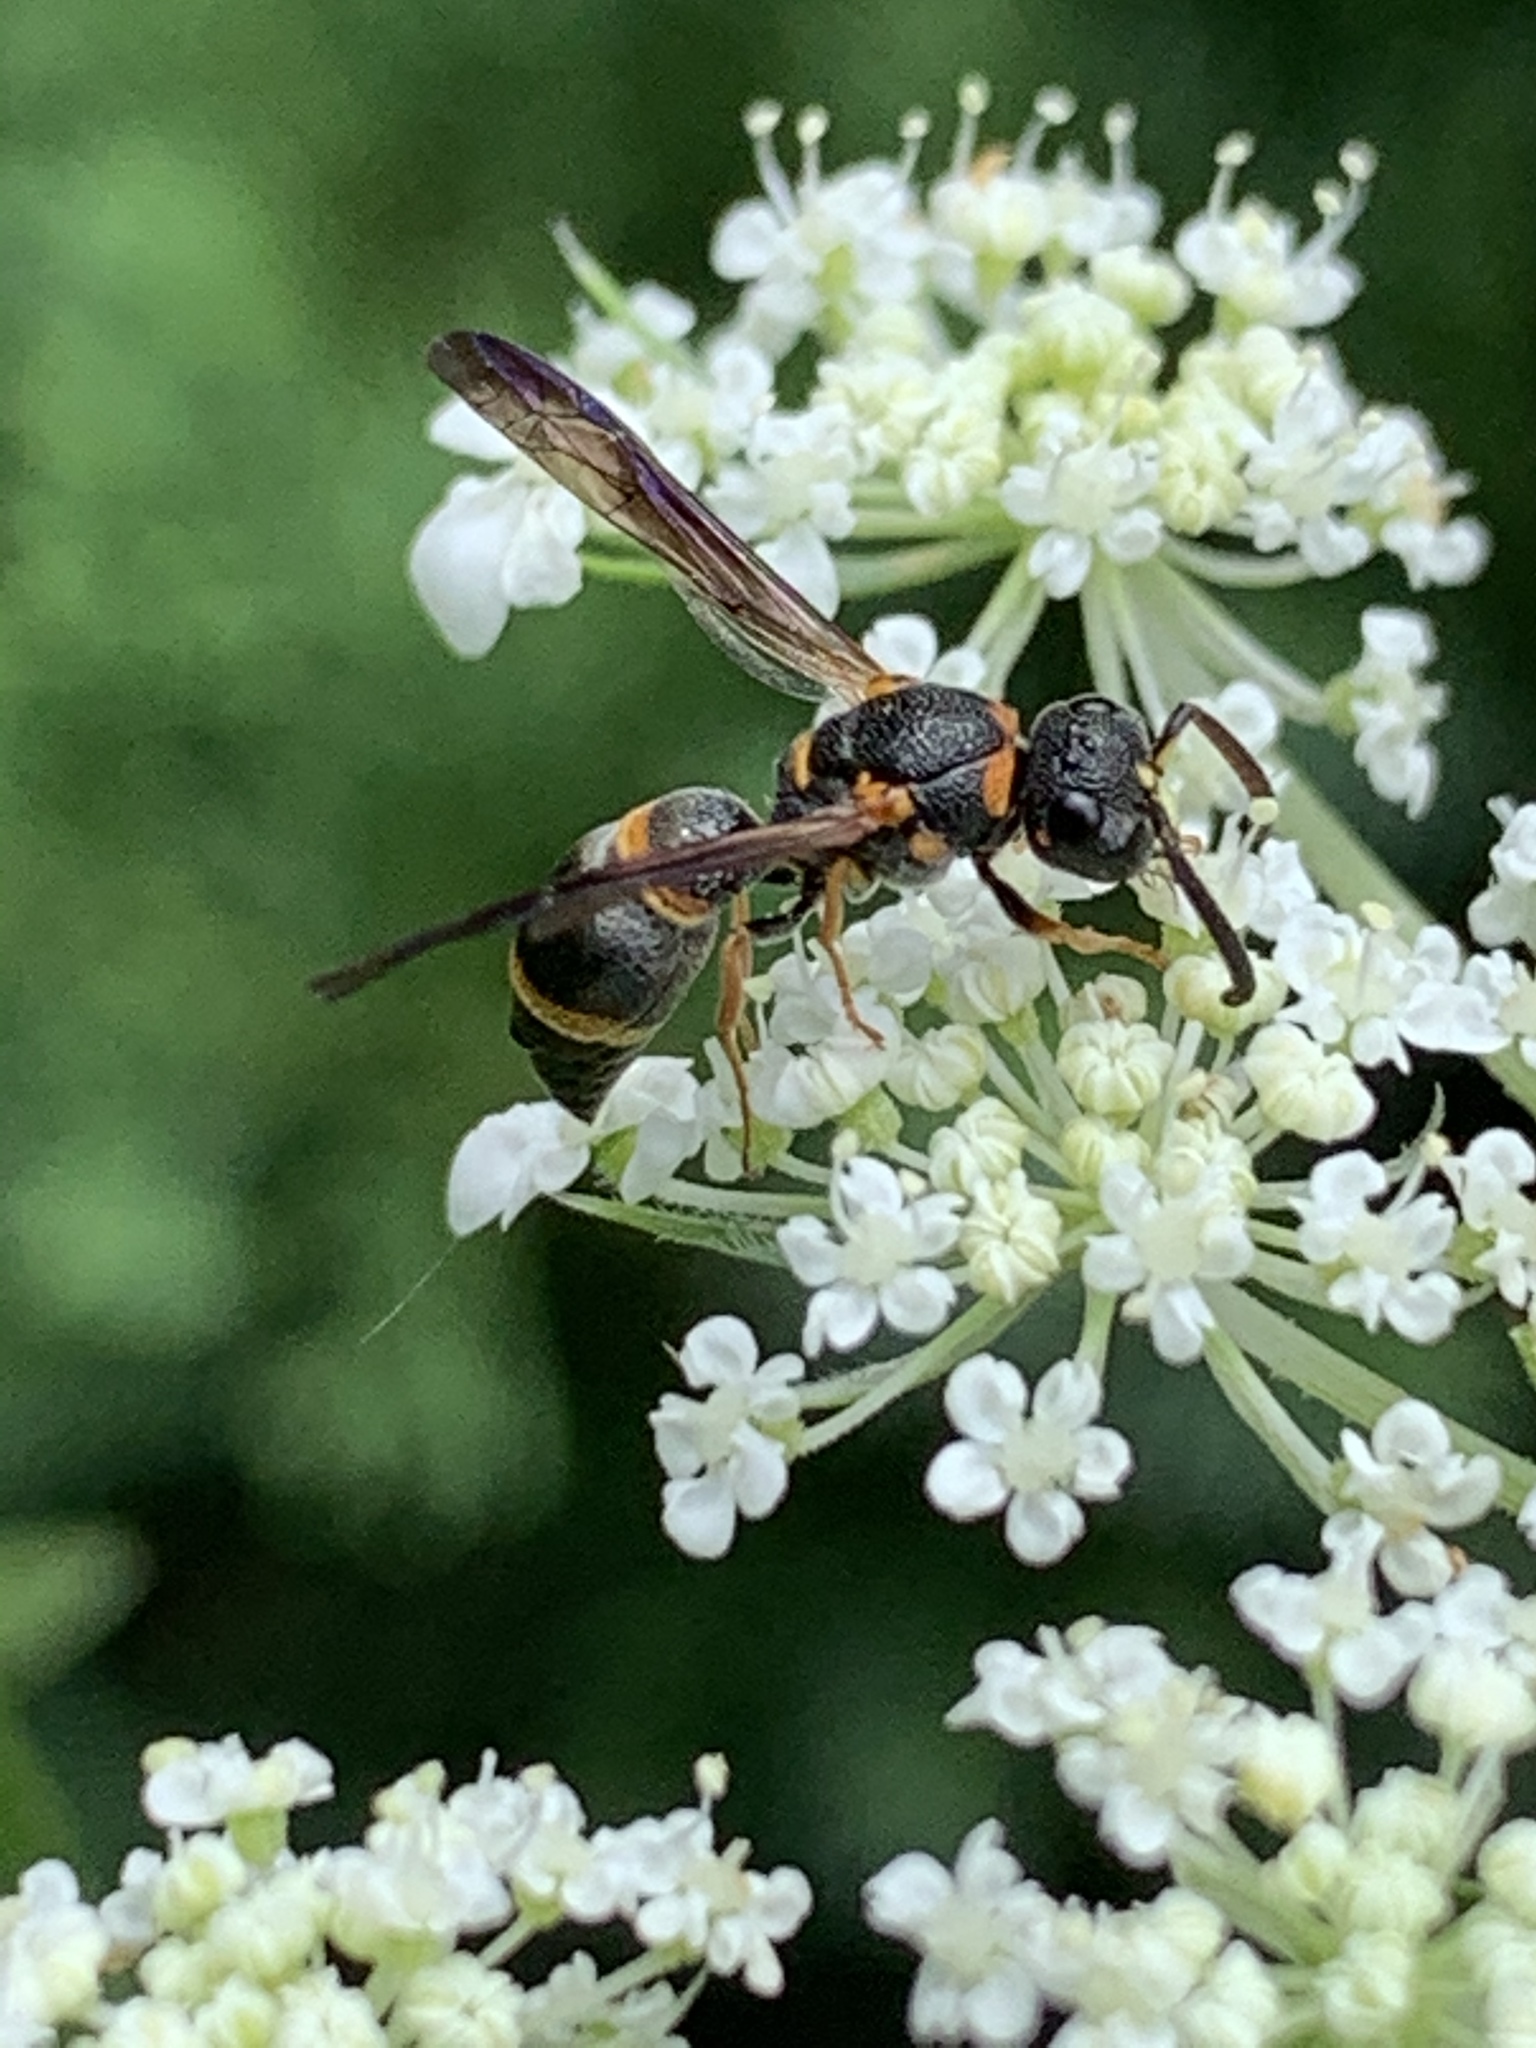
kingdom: Animalia
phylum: Arthropoda
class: Insecta
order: Hymenoptera
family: Eumenidae
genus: Parancistrocerus
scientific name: Parancistrocerus perennis
